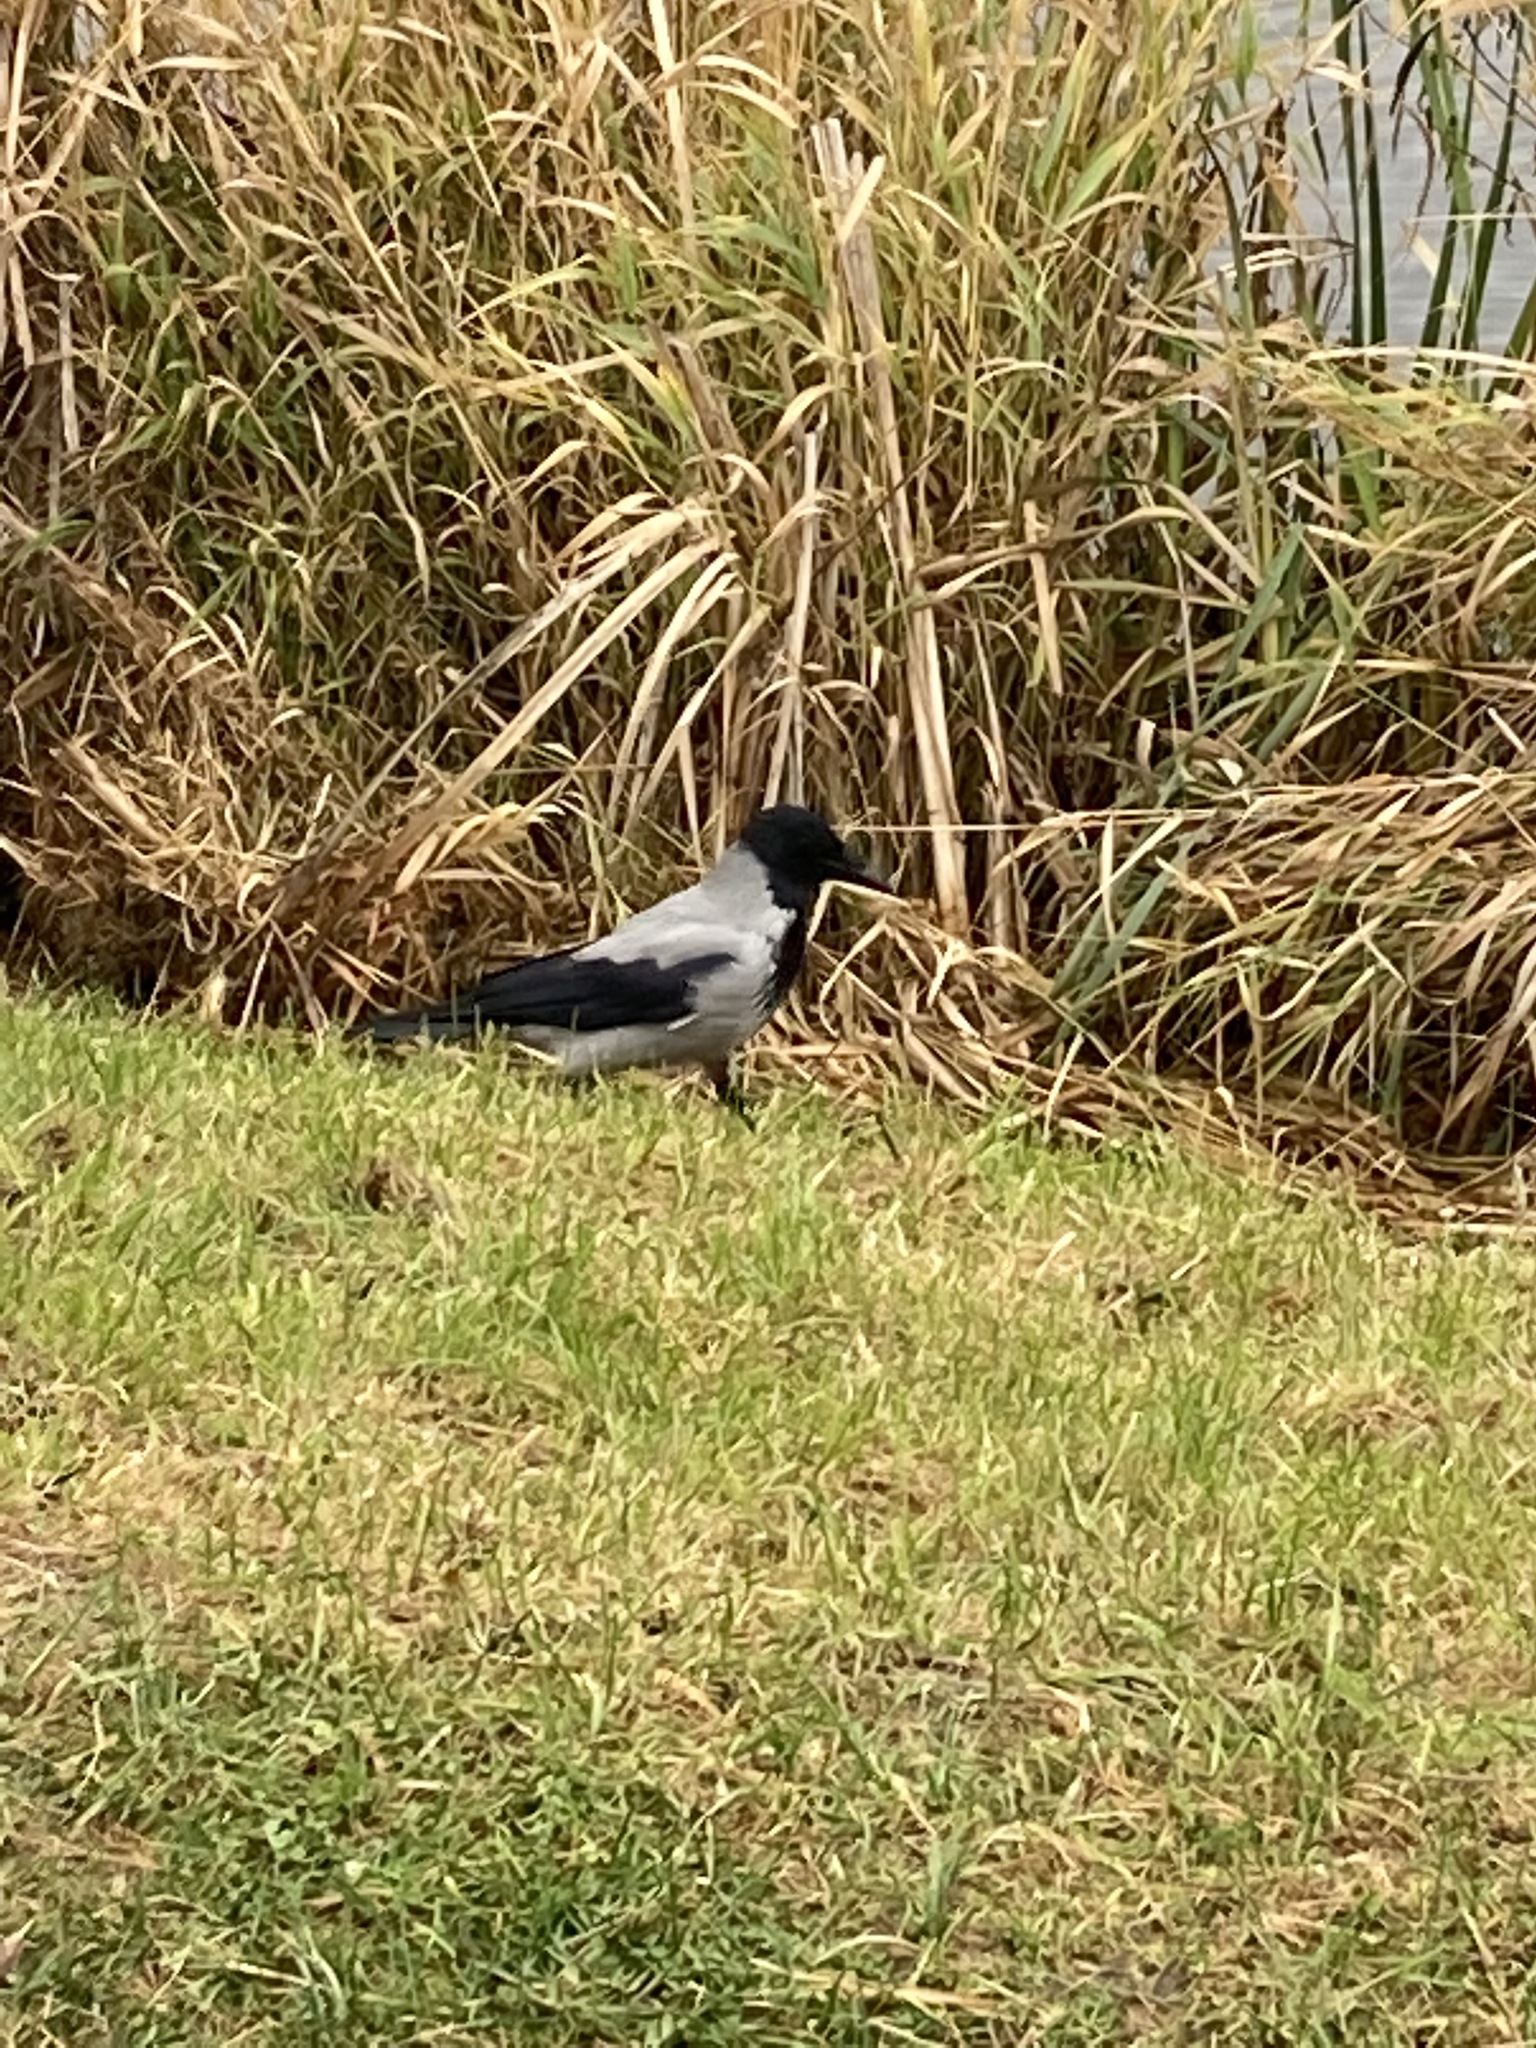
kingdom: Animalia
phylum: Chordata
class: Aves
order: Passeriformes
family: Corvidae
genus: Corvus
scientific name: Corvus cornix
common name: Hooded crow
